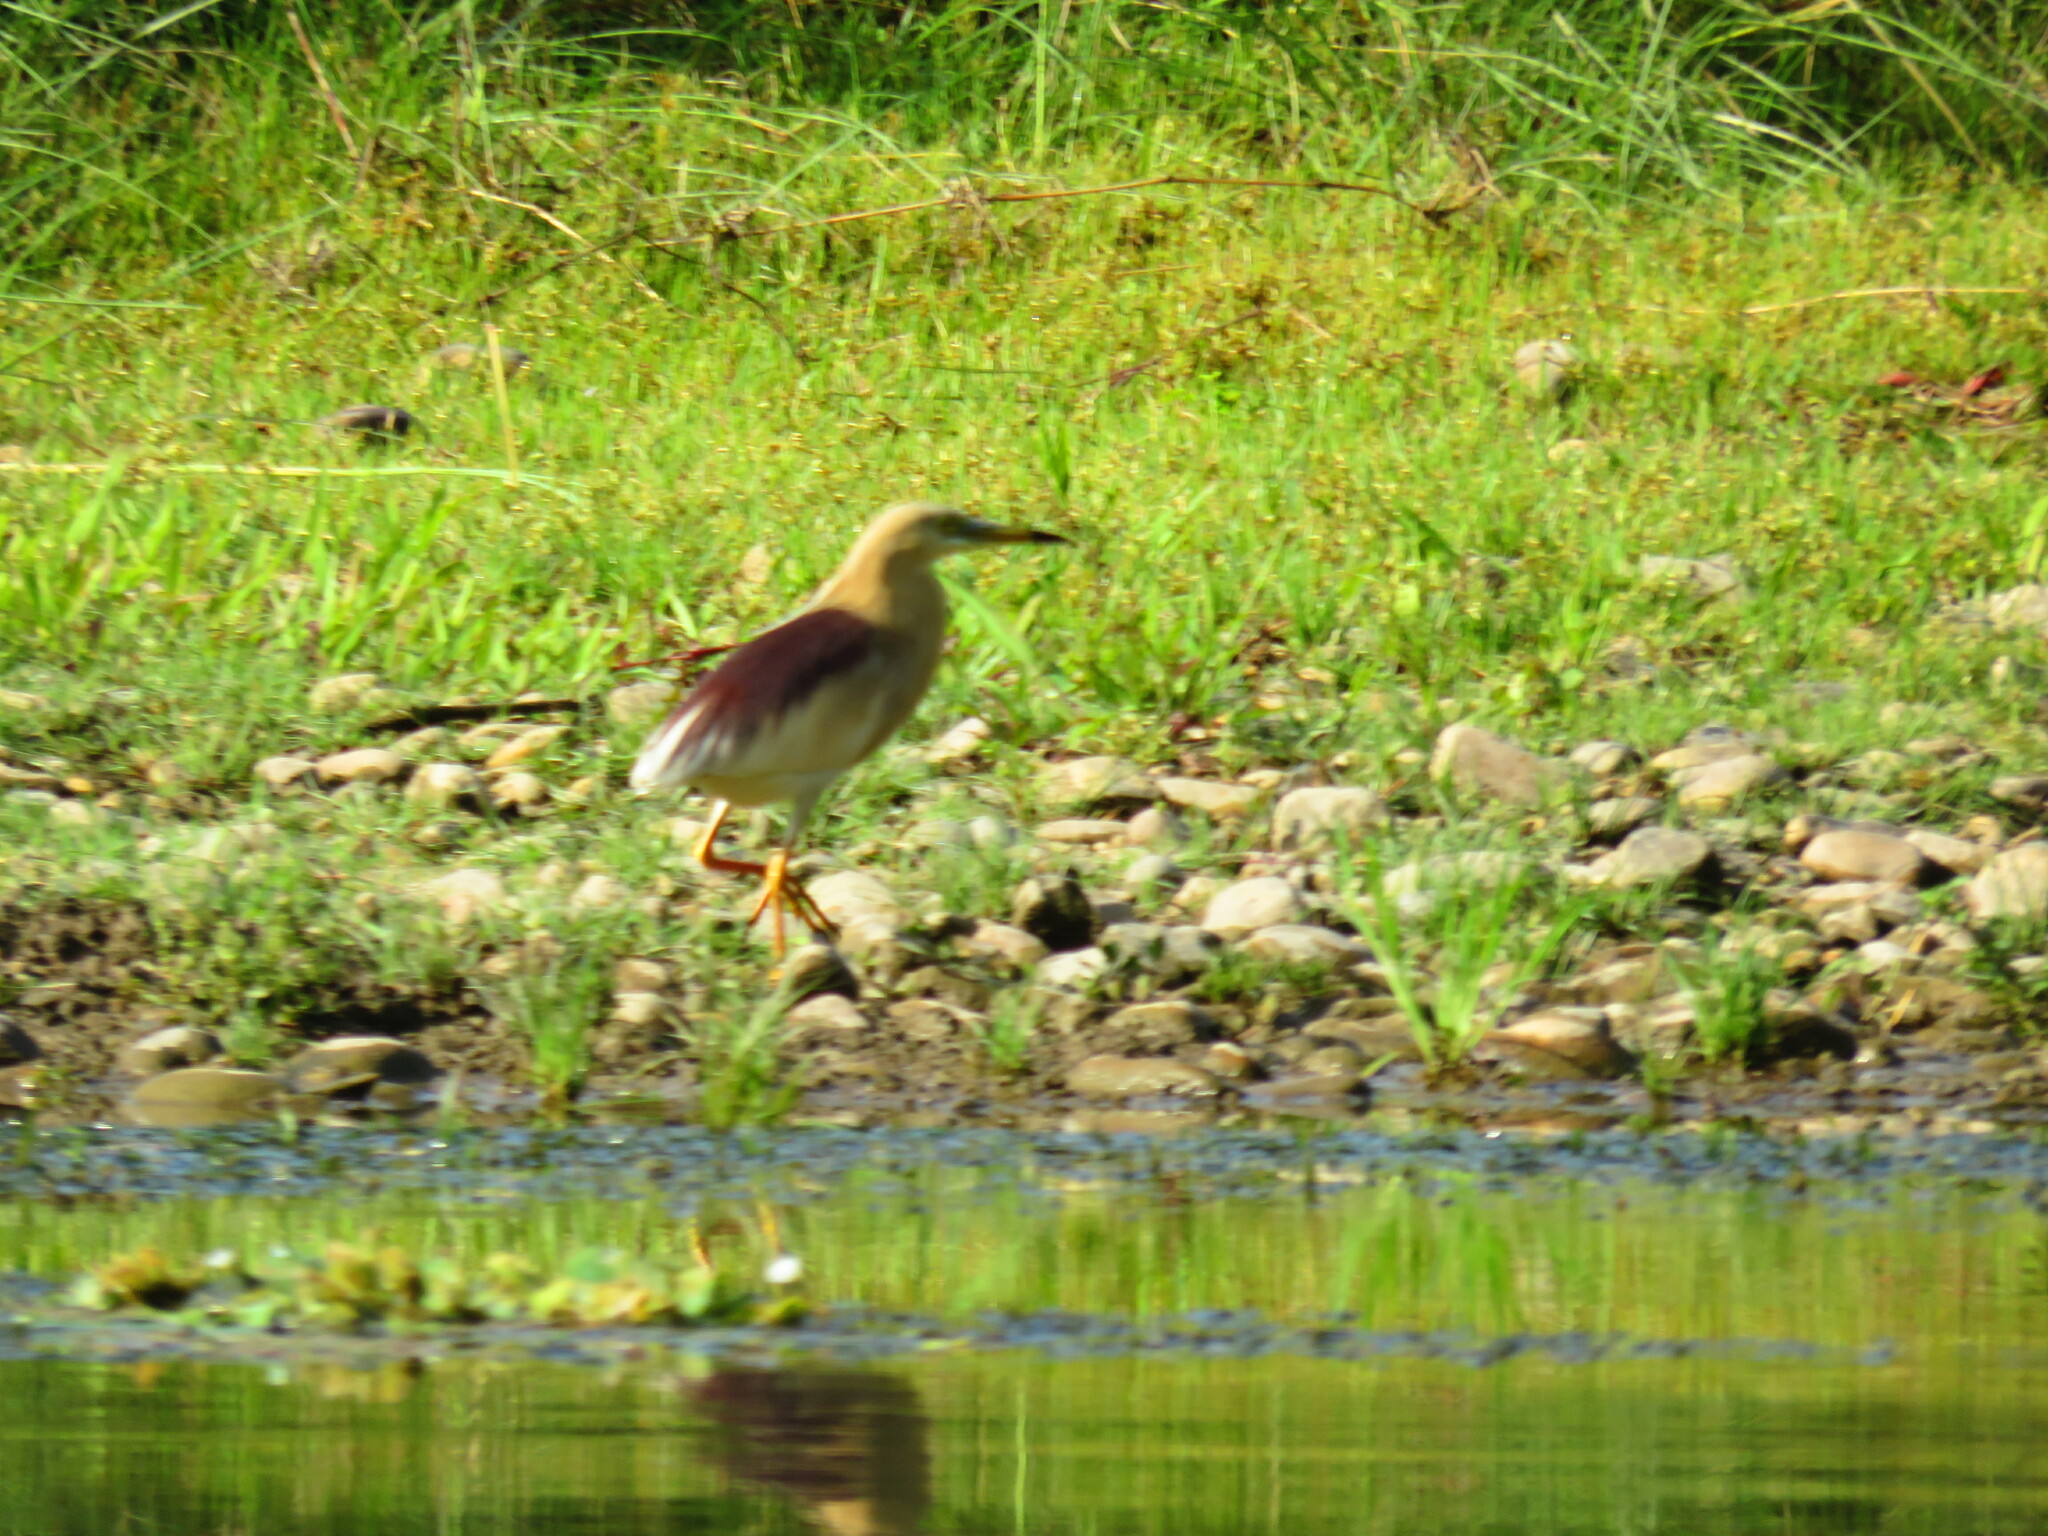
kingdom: Animalia
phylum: Chordata
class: Aves
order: Pelecaniformes
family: Ardeidae
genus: Ardeola
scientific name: Ardeola grayii
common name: Indian pond heron
